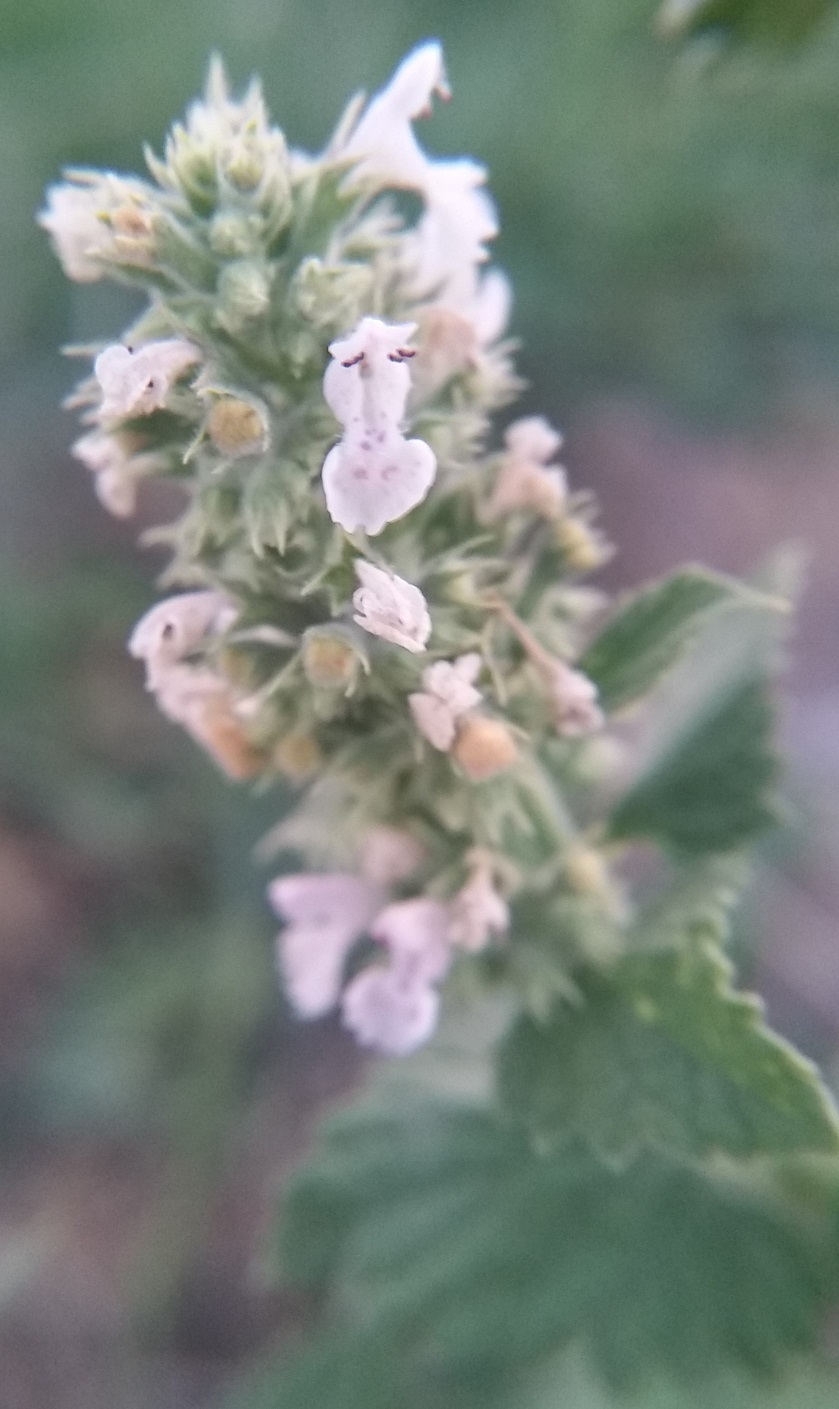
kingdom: Plantae
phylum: Tracheophyta
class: Magnoliopsida
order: Lamiales
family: Lamiaceae
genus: Nepeta
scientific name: Nepeta cataria
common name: Catnip
